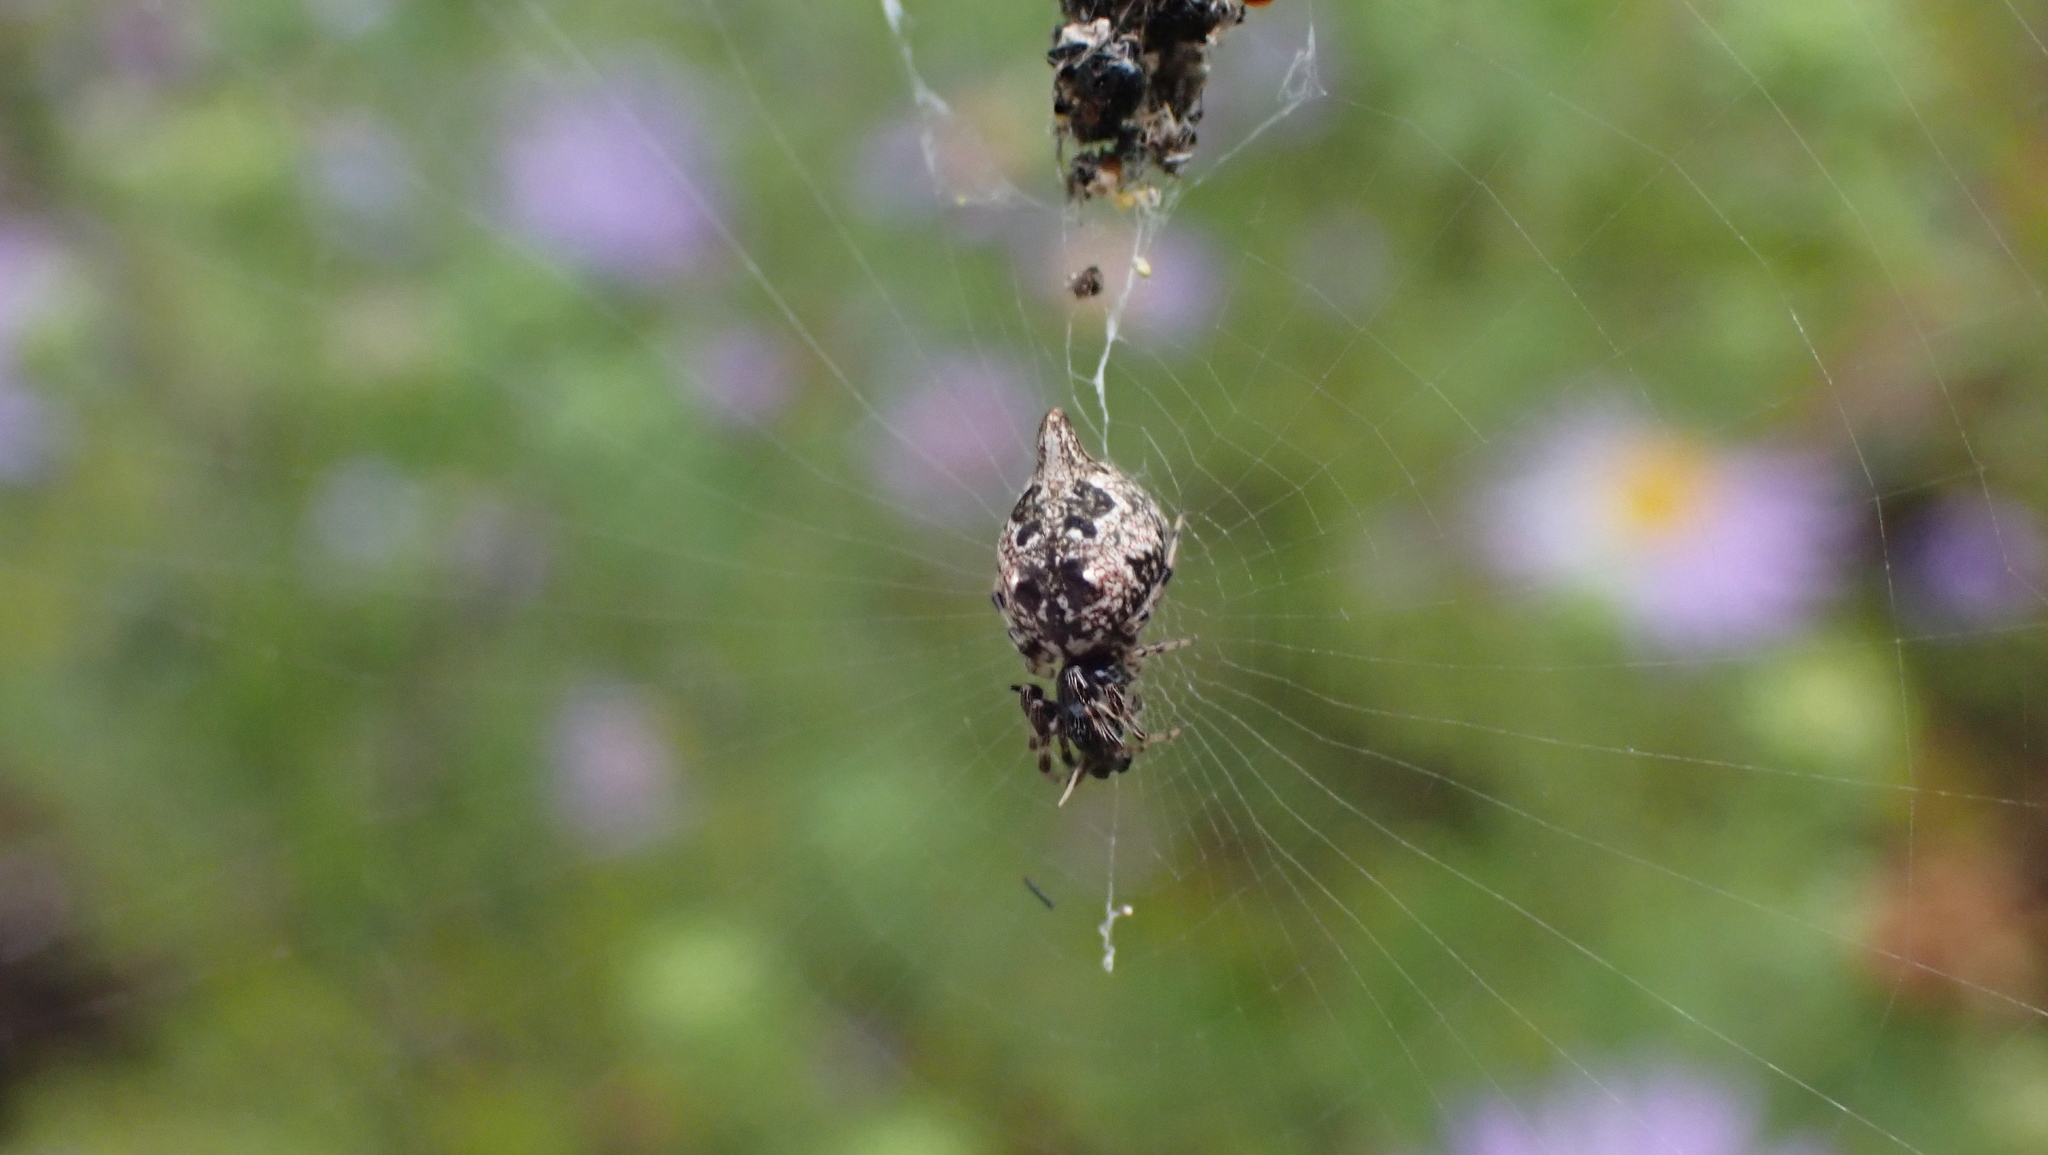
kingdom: Animalia
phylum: Arthropoda
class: Arachnida
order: Araneae
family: Araneidae
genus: Cyclosa
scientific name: Cyclosa turbinata
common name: Orb weavers
